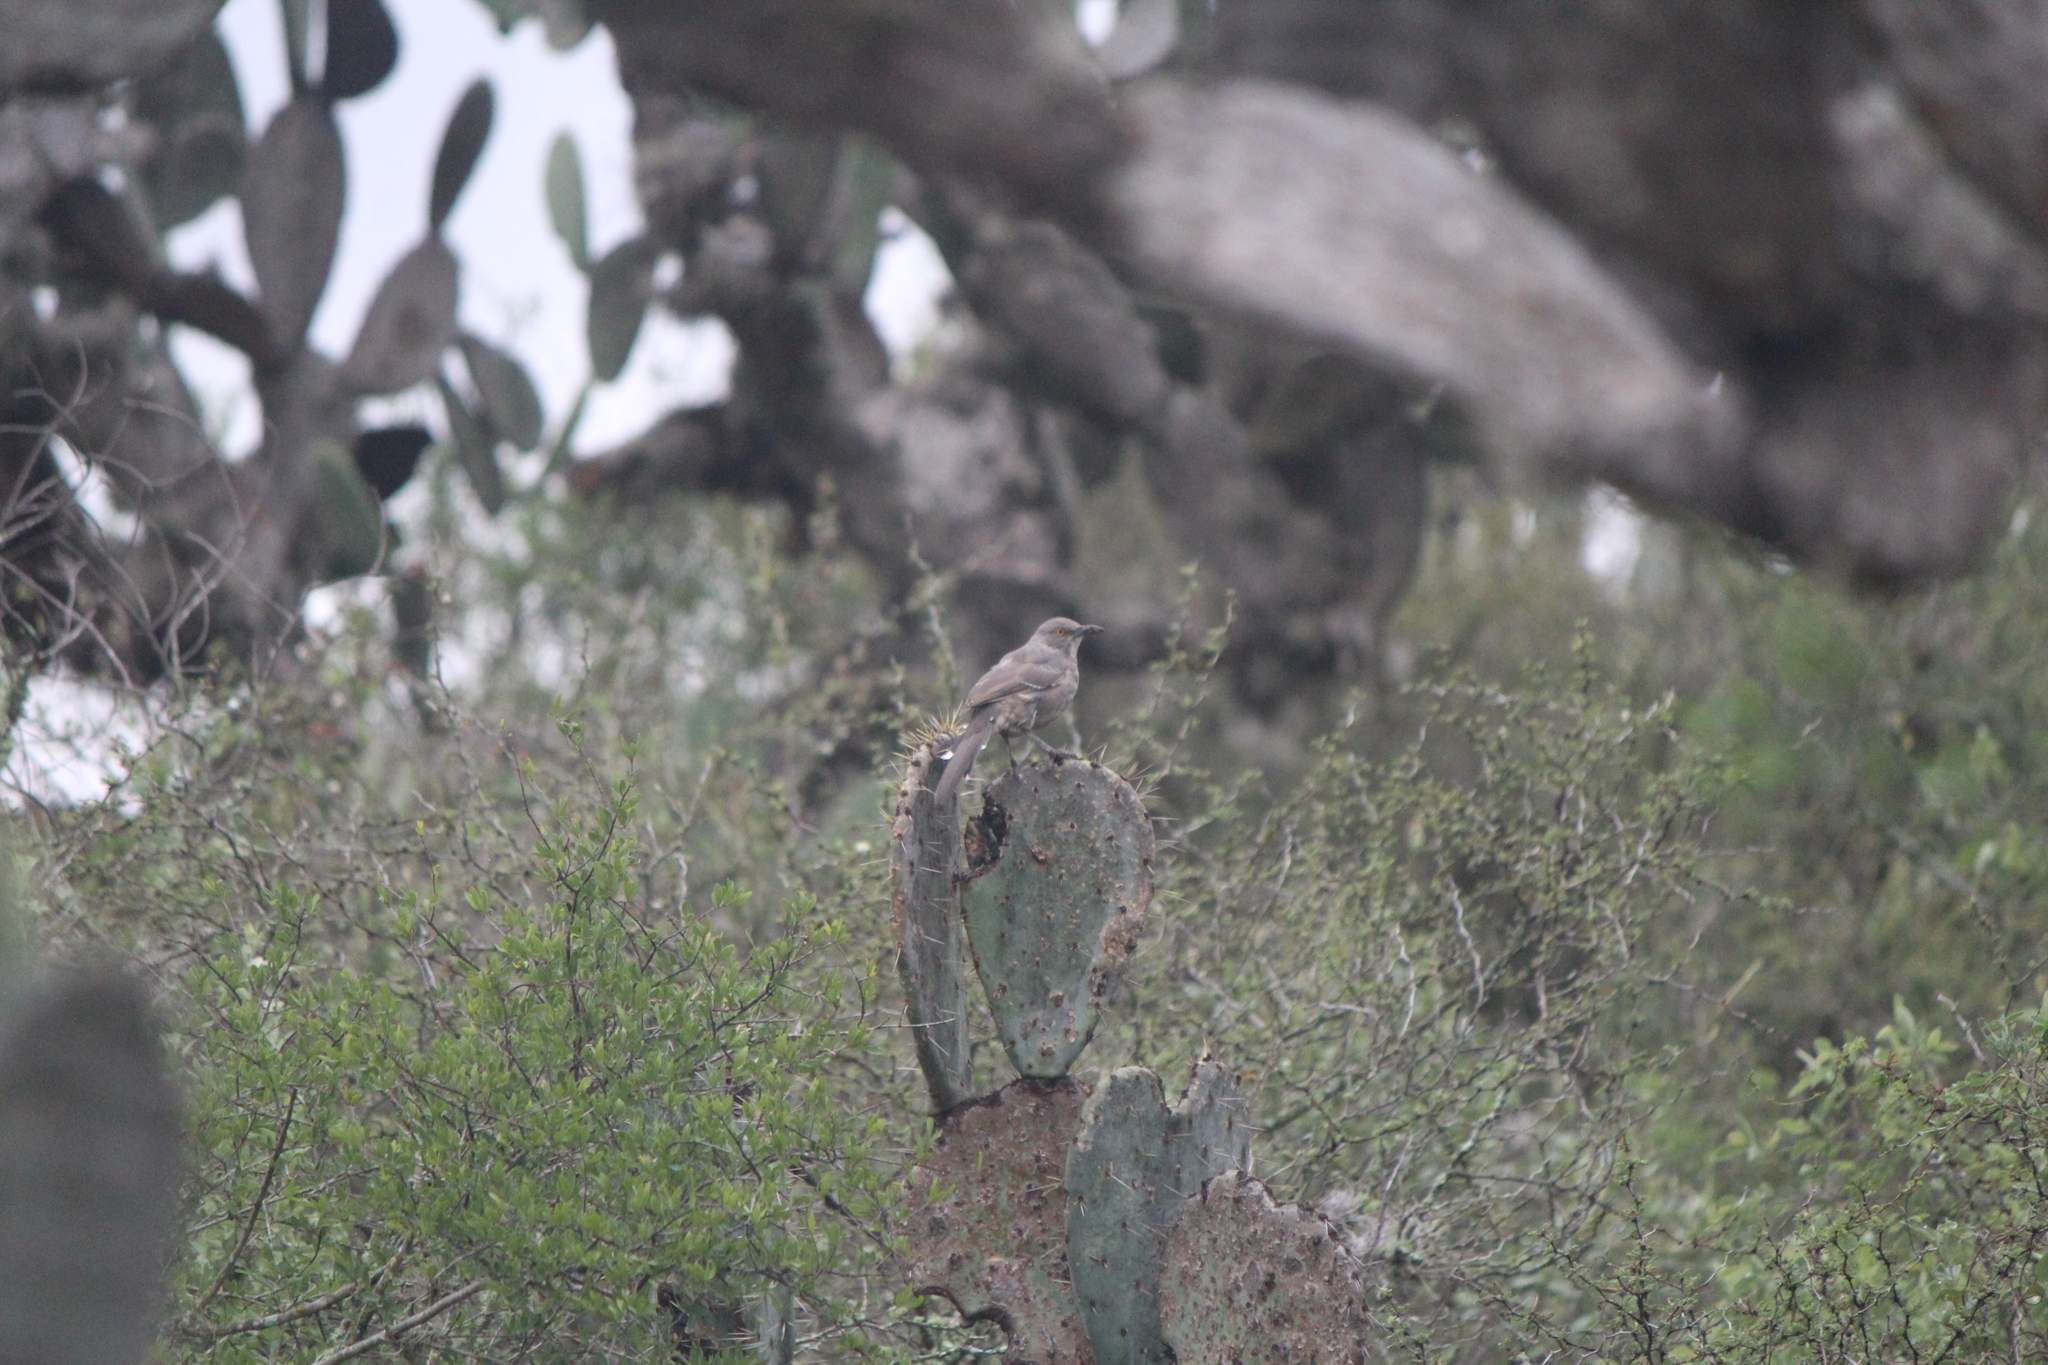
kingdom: Animalia
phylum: Chordata
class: Aves
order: Passeriformes
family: Mimidae
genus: Toxostoma
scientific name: Toxostoma curvirostre
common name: Curve-billed thrasher
